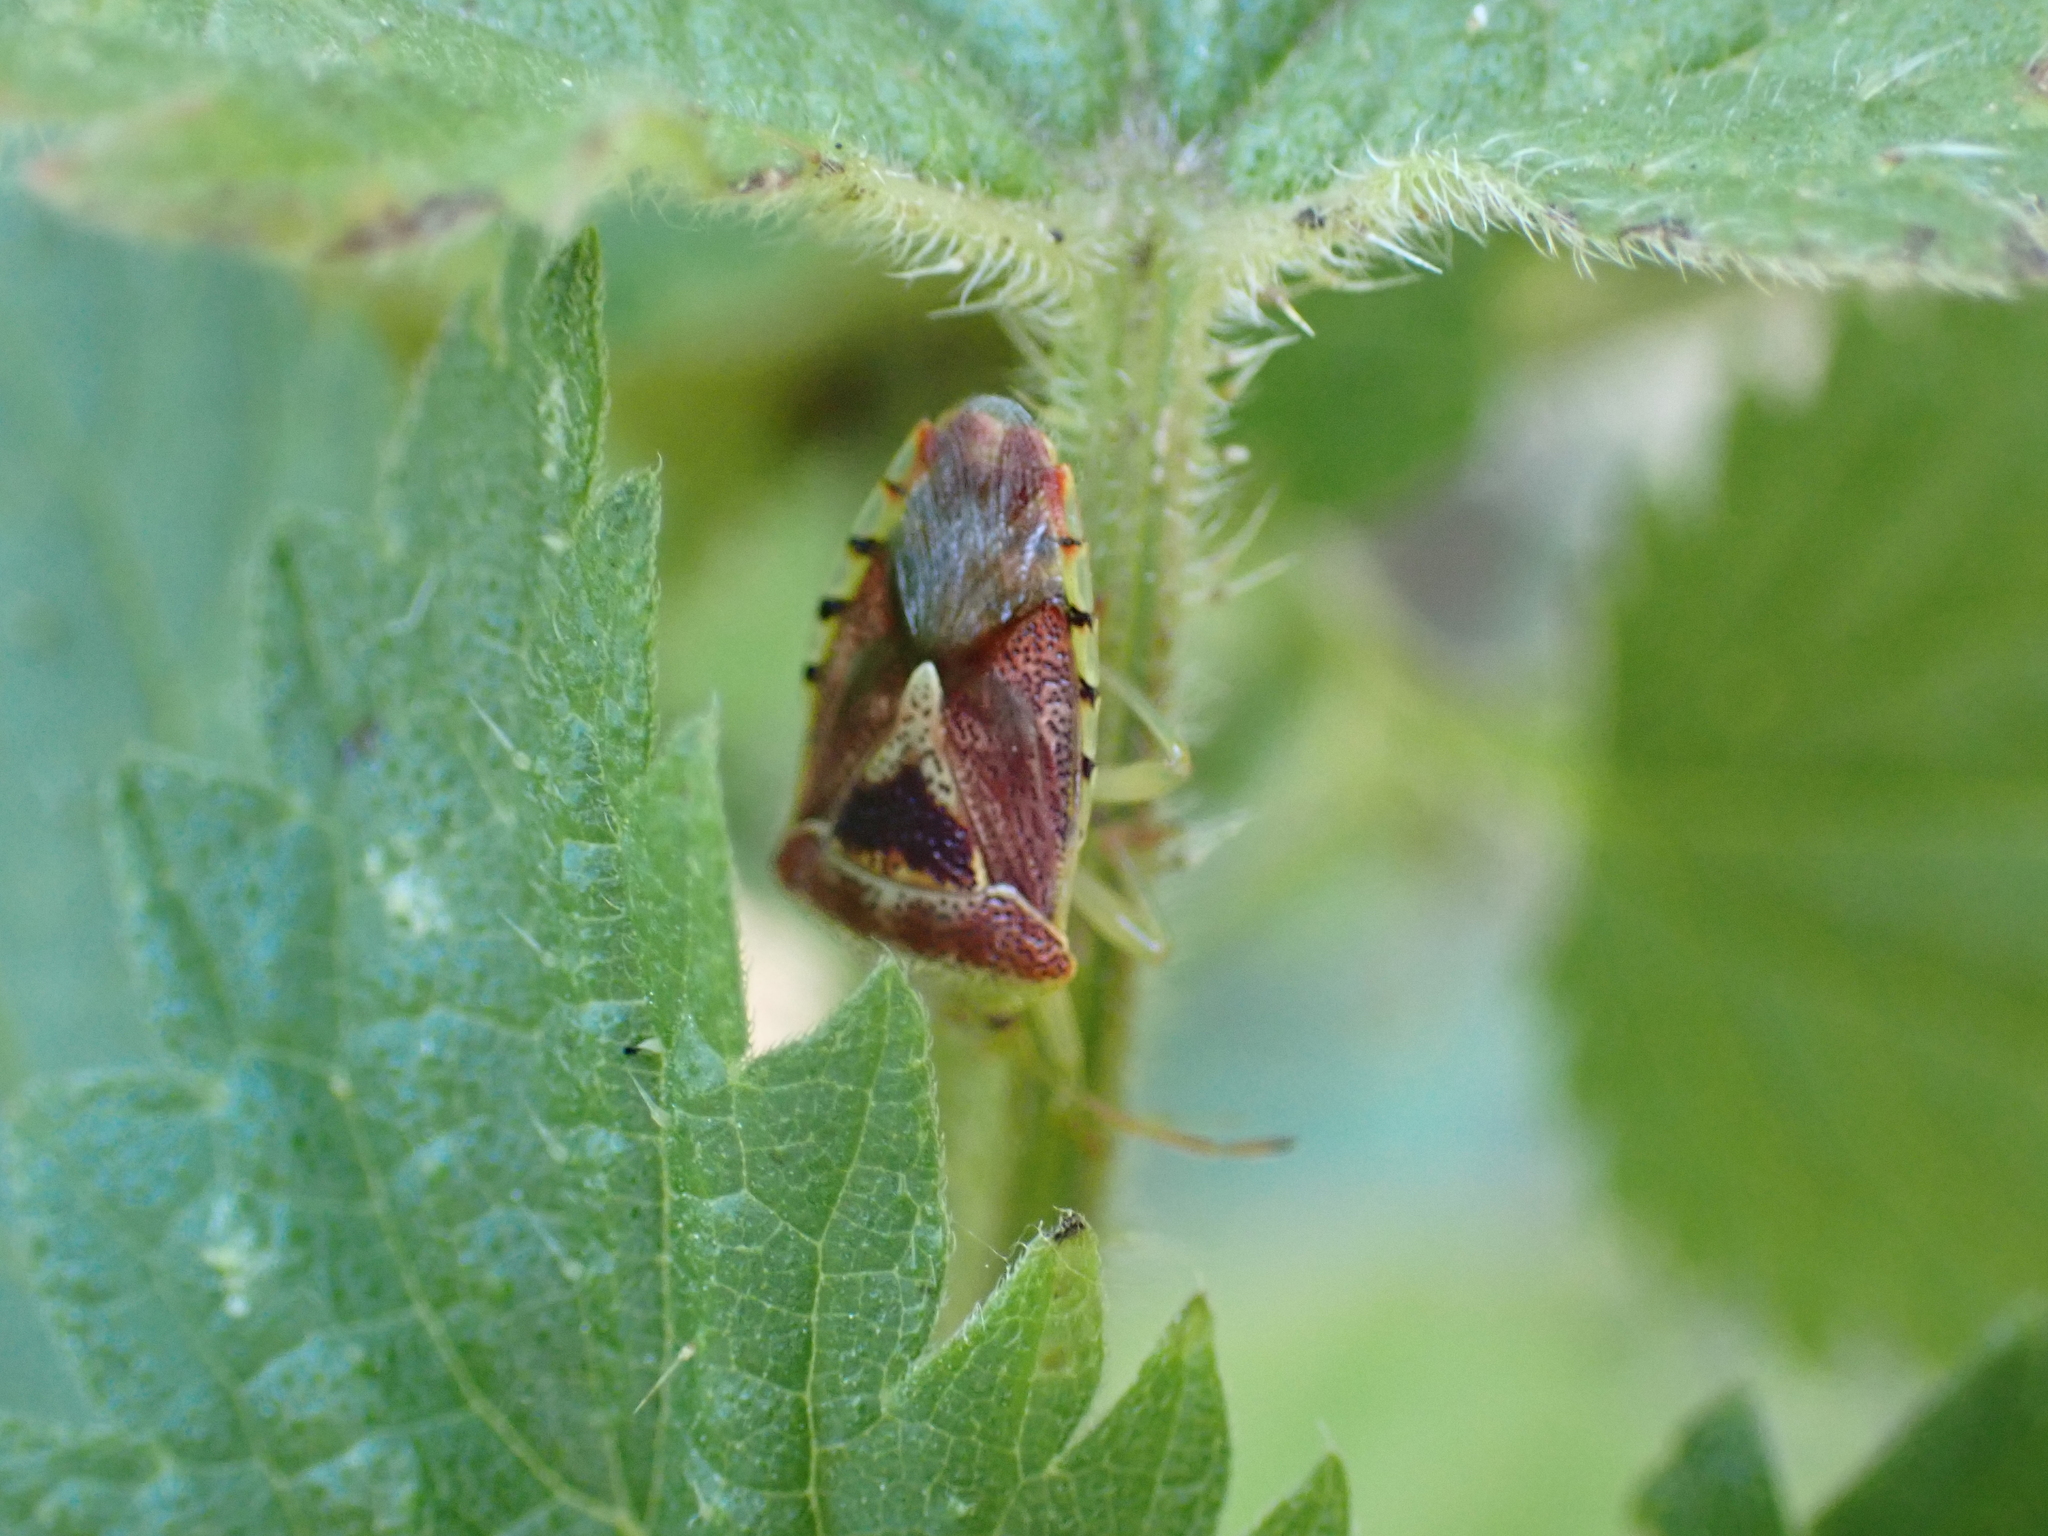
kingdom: Animalia
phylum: Arthropoda
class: Insecta
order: Hemiptera
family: Acanthosomatidae
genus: Elasmucha
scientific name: Elasmucha grisea
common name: Parent bug
